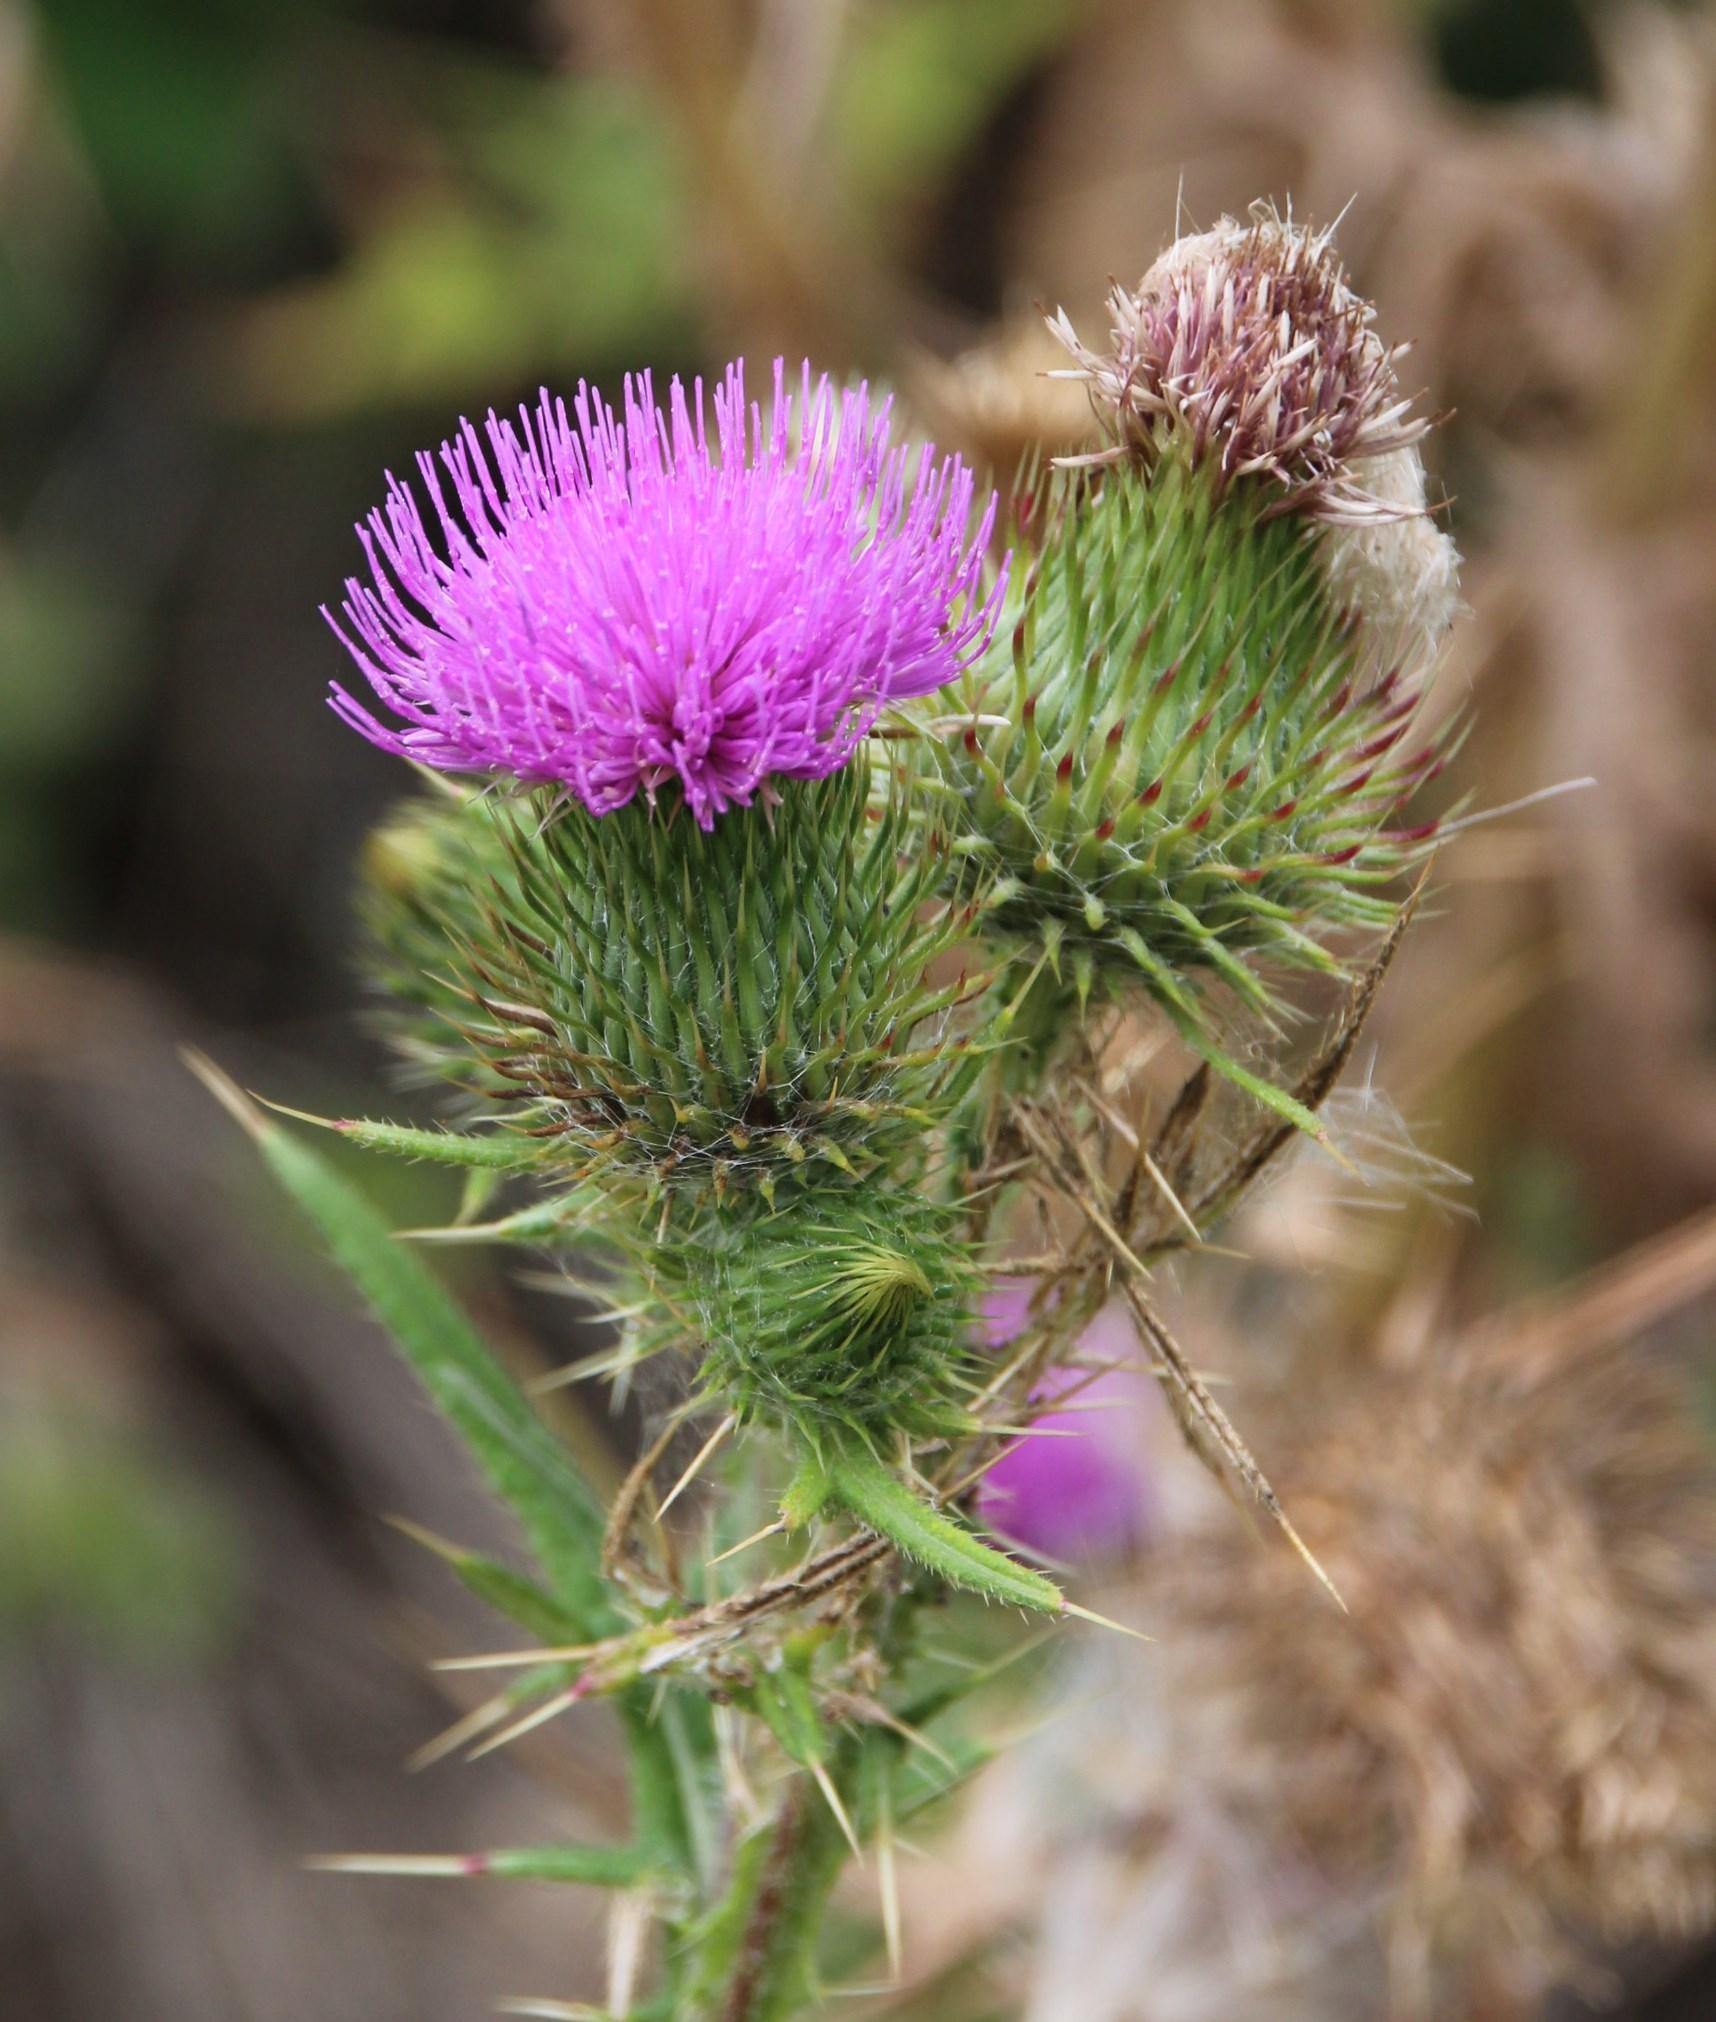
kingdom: Plantae
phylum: Tracheophyta
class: Magnoliopsida
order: Asterales
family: Asteraceae
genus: Cirsium
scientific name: Cirsium vulgare
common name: Bull thistle
